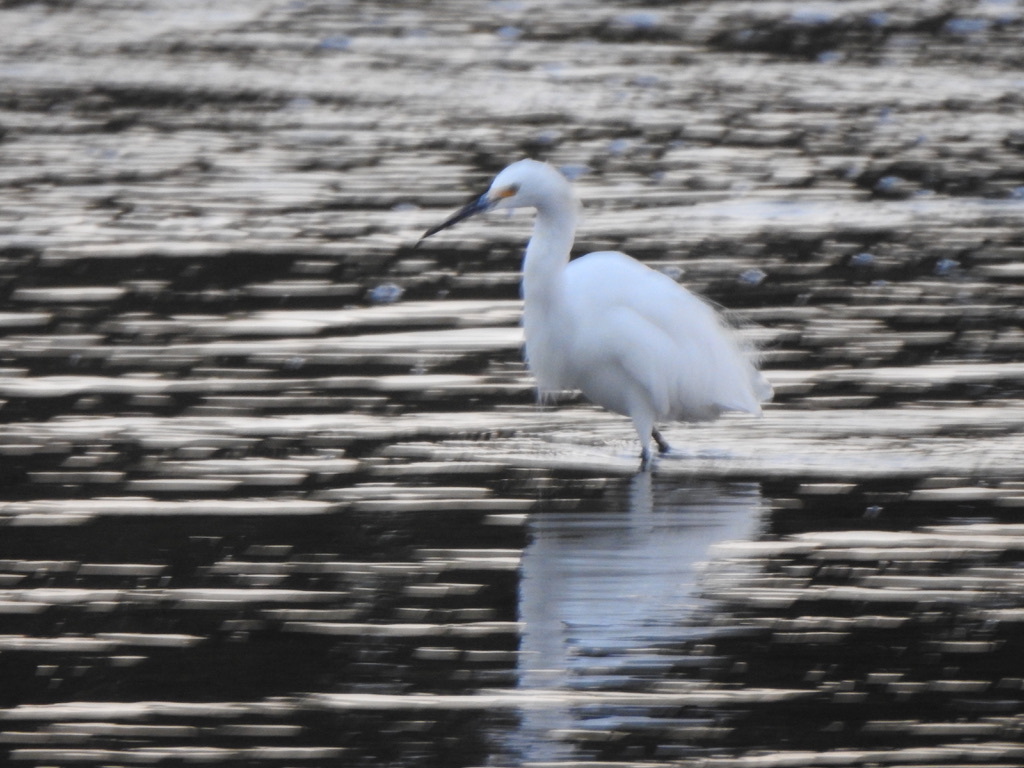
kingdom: Animalia
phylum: Chordata
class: Aves
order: Pelecaniformes
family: Ardeidae
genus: Egretta
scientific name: Egretta thula
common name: Snowy egret
